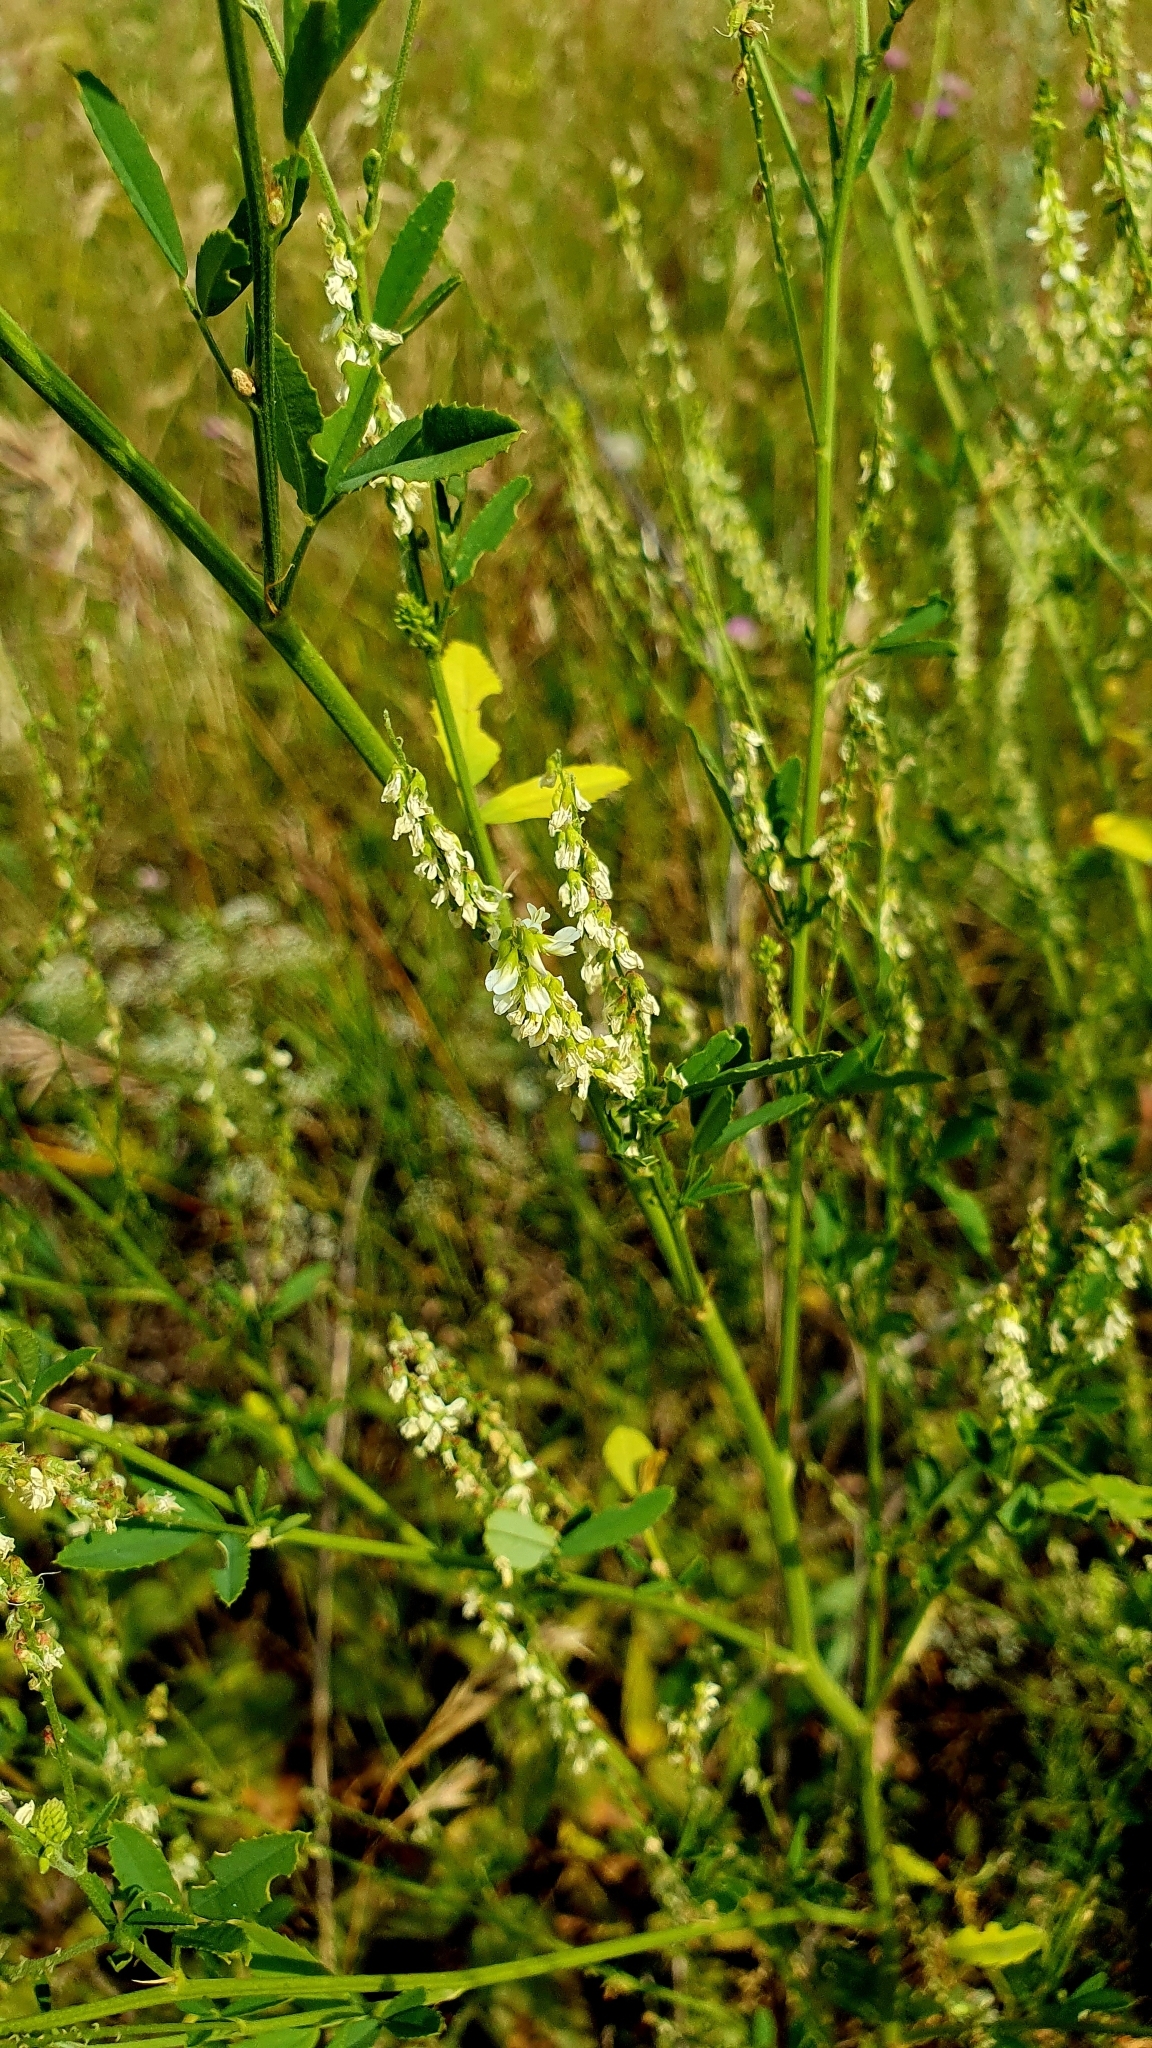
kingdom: Plantae
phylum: Tracheophyta
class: Magnoliopsida
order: Fabales
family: Fabaceae
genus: Melilotus
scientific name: Melilotus albus
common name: White melilot
